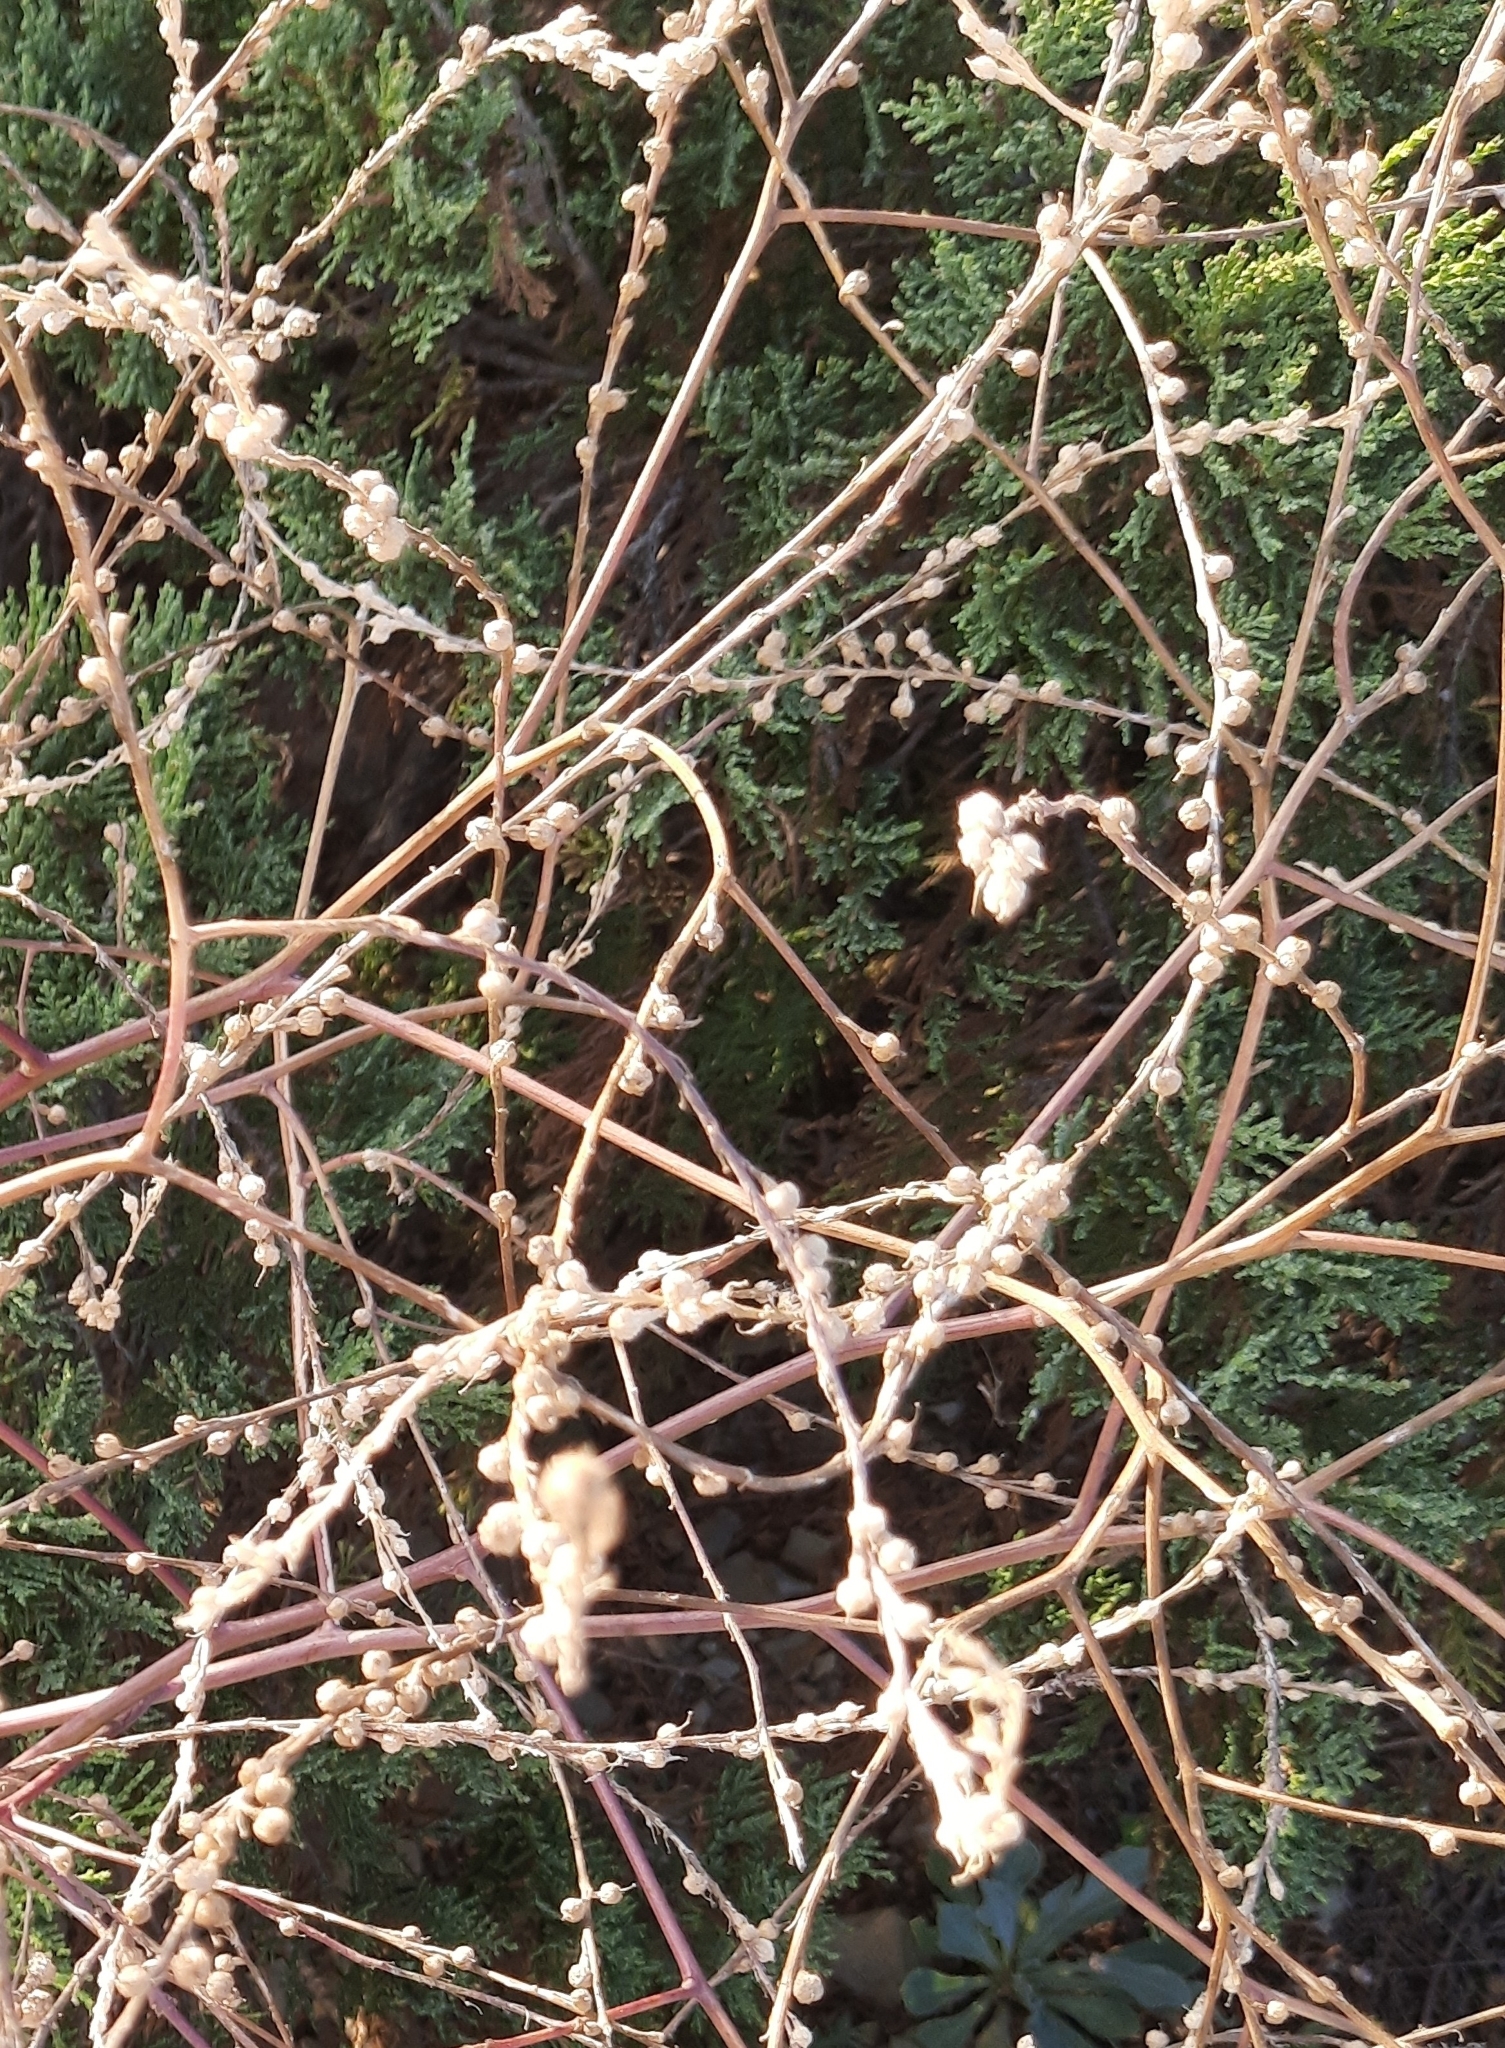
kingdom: Plantae
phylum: Tracheophyta
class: Magnoliopsida
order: Brassicales
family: Brassicaceae
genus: Rapistrum
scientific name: Rapistrum rugosum
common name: Annual bastardcabbage
